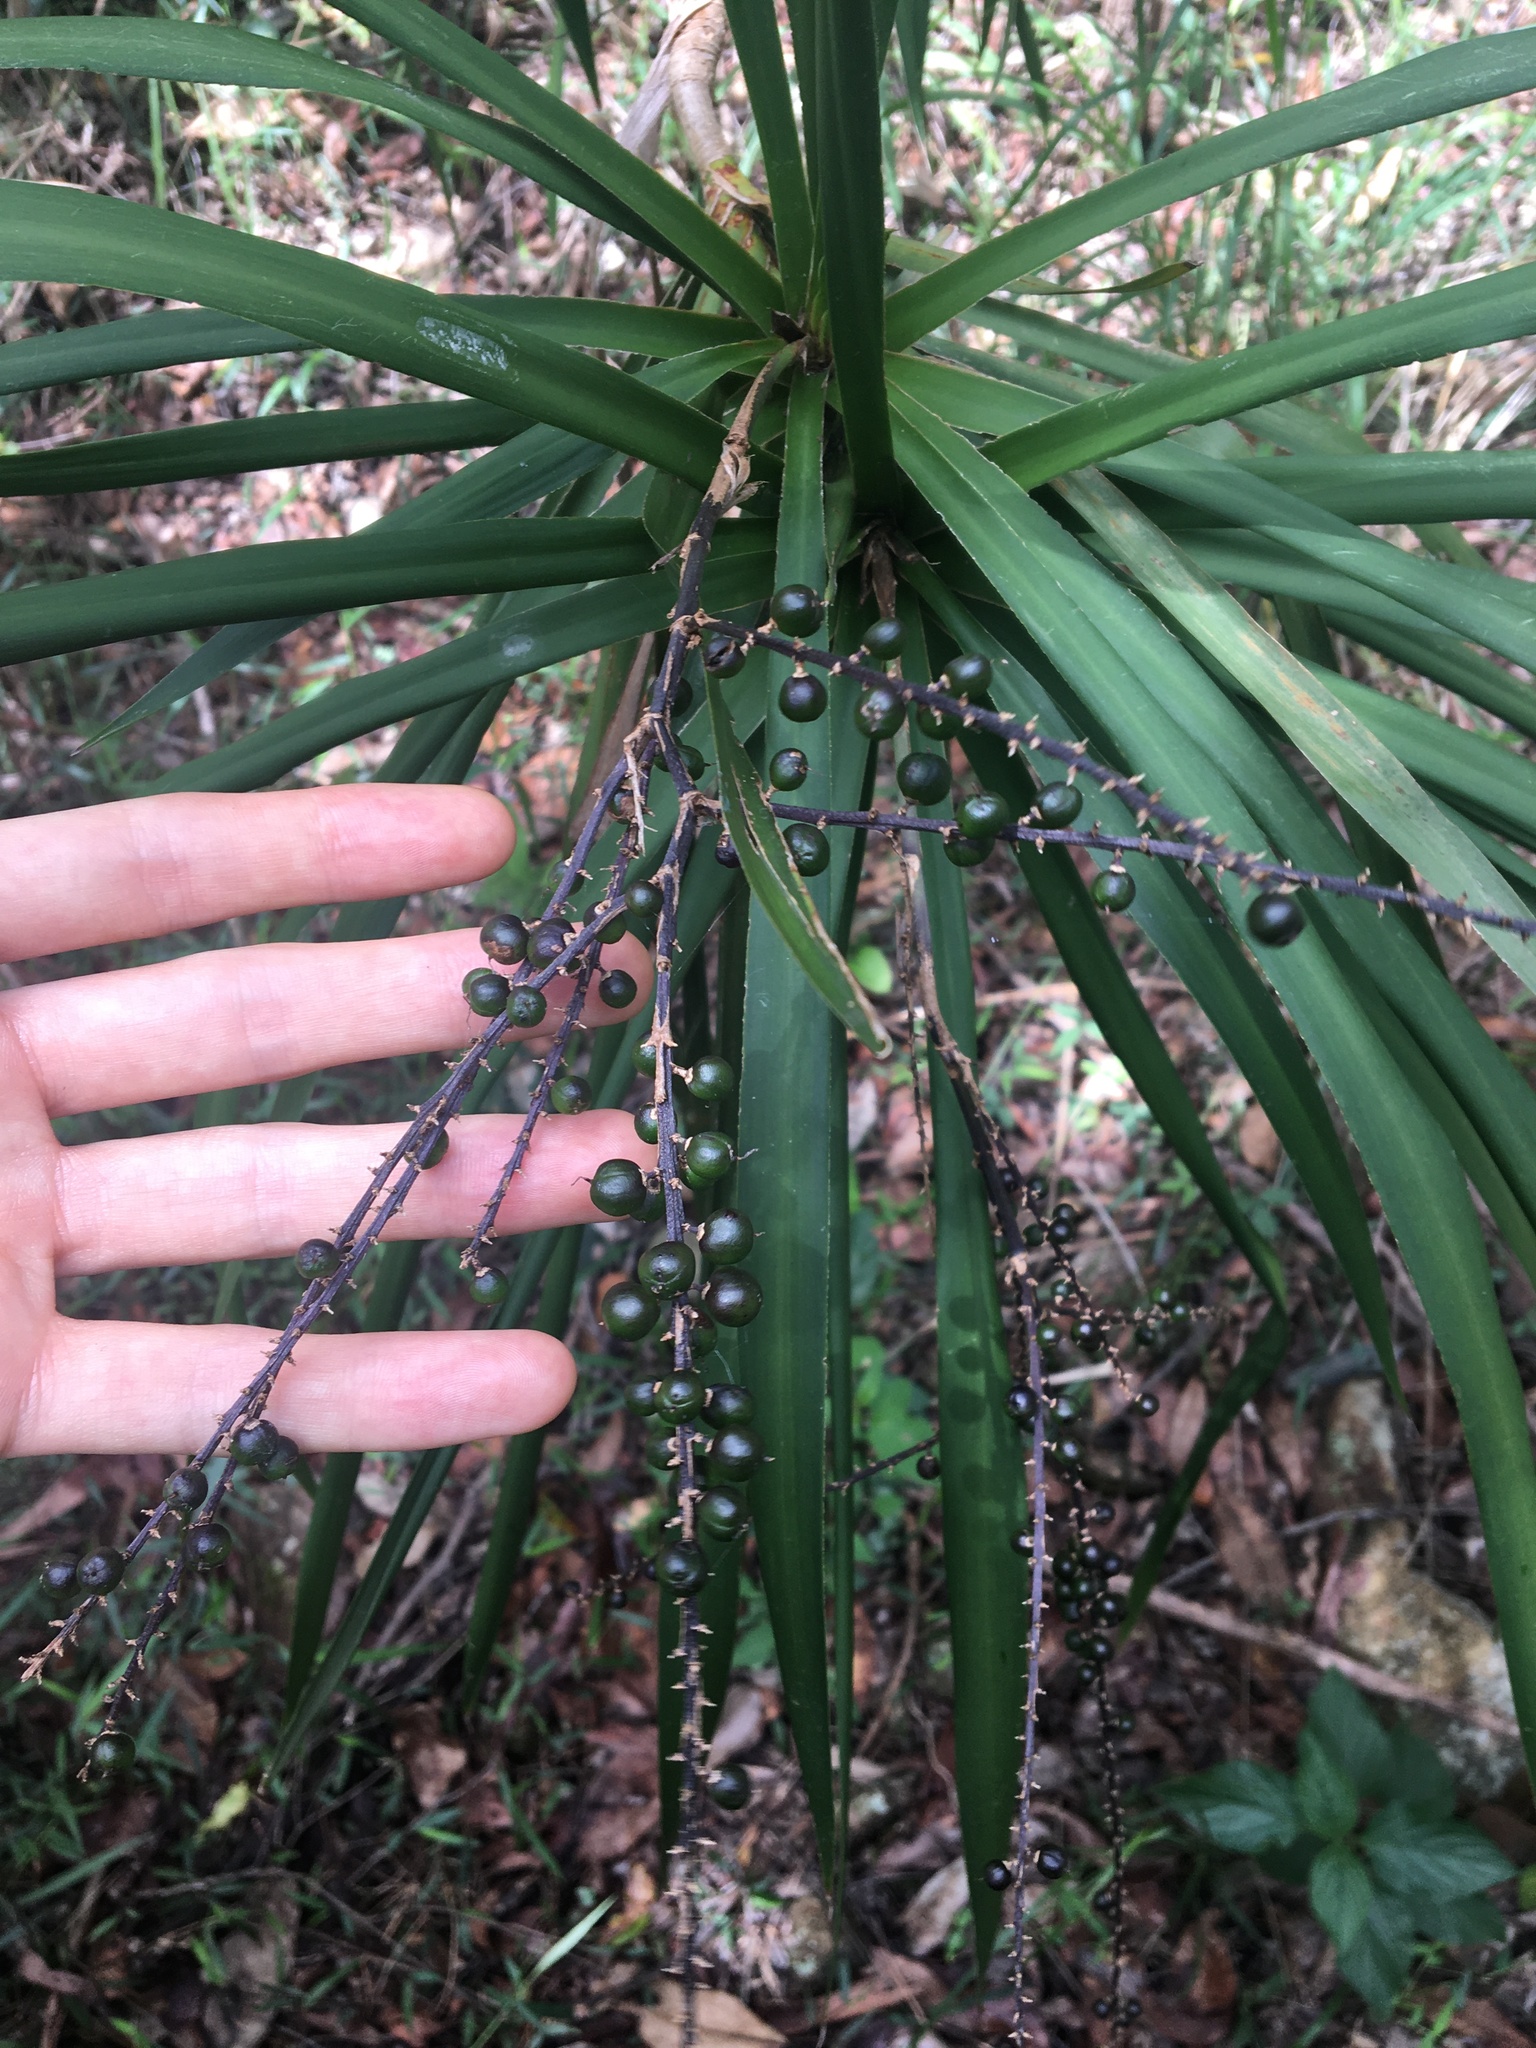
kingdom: Plantae
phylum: Tracheophyta
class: Liliopsida
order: Asparagales
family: Asparagaceae
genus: Cordyline
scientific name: Cordyline stricta
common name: Narrow-leaf palm-lily
